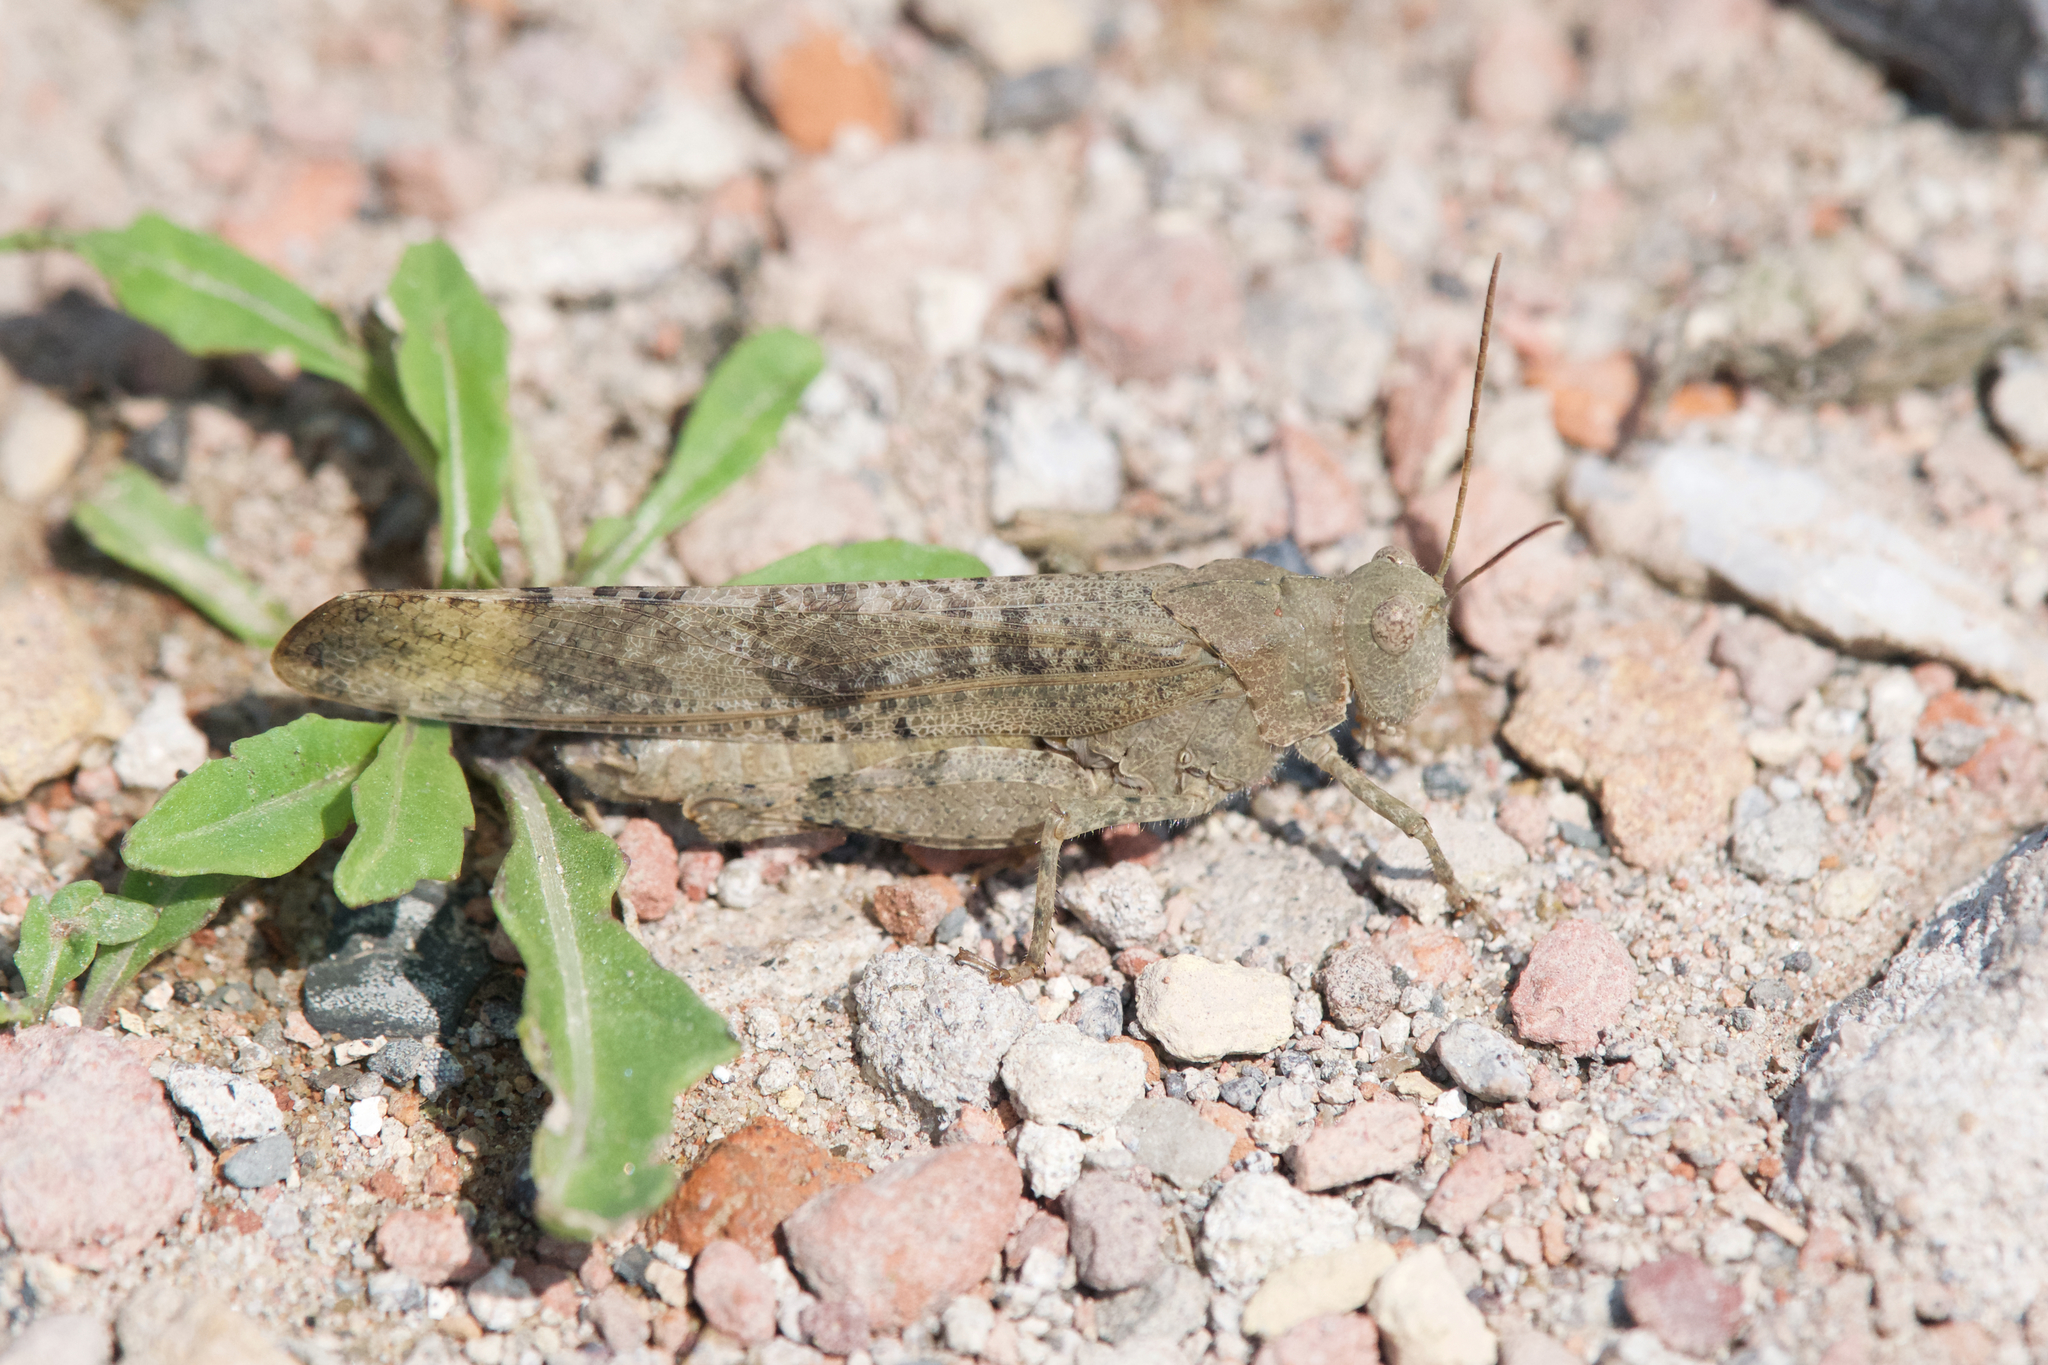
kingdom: Animalia
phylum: Arthropoda
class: Insecta
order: Orthoptera
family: Acrididae
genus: Dissosteira
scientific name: Dissosteira carolina
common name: Carolina grasshopper
